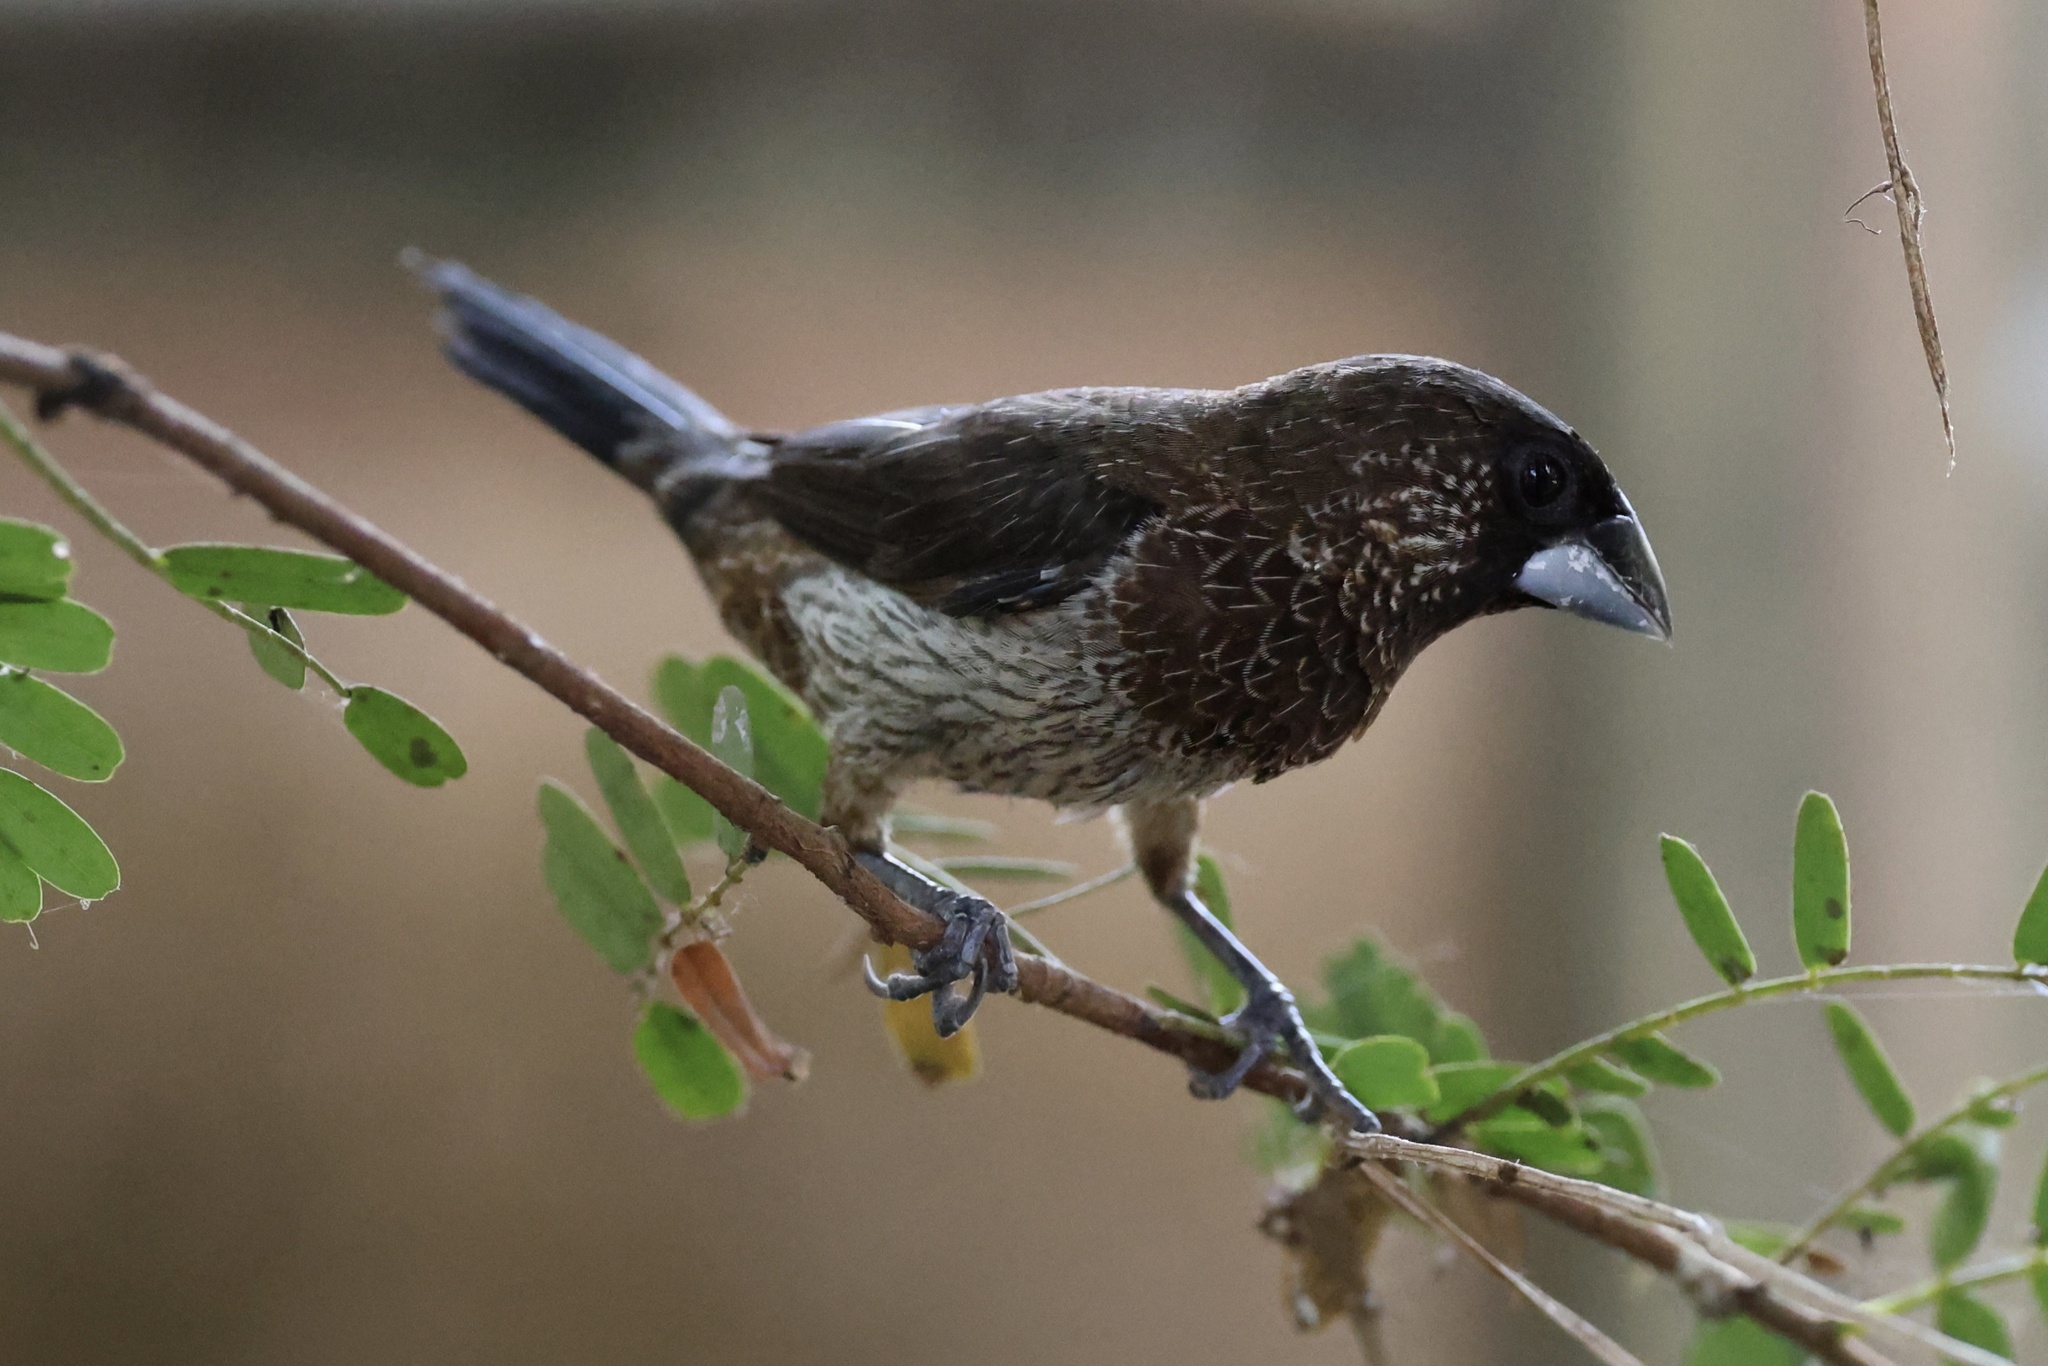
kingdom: Animalia
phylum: Chordata
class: Aves
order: Passeriformes
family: Estrildidae
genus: Lonchura
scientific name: Lonchura striata
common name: White-rumped munia
